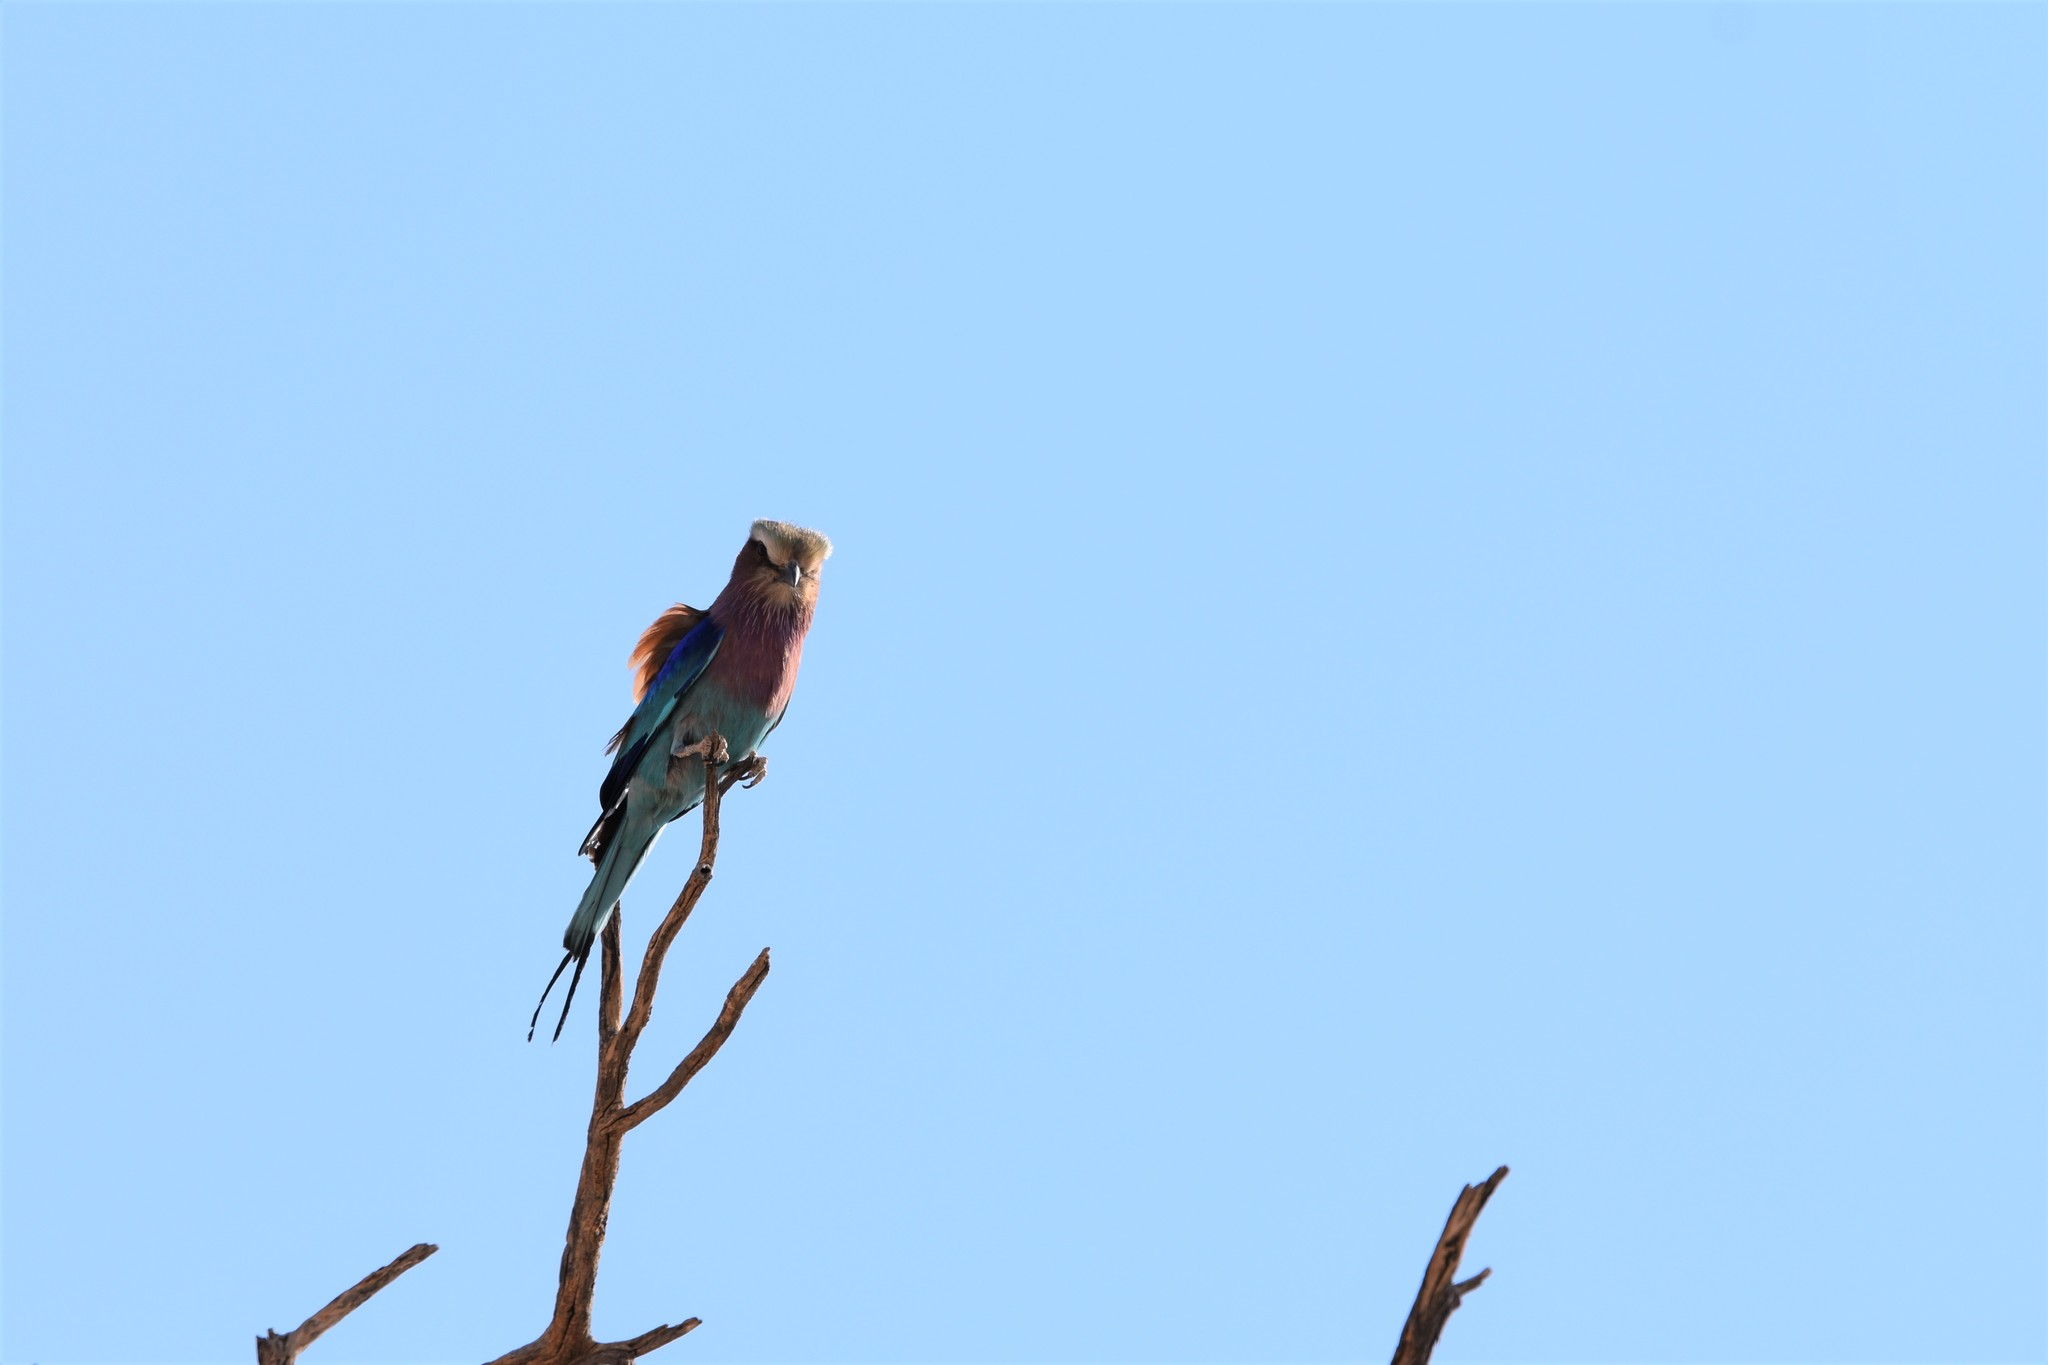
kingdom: Animalia
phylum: Chordata
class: Aves
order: Coraciiformes
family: Coraciidae
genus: Coracias
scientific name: Coracias caudatus
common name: Lilac-breasted roller
